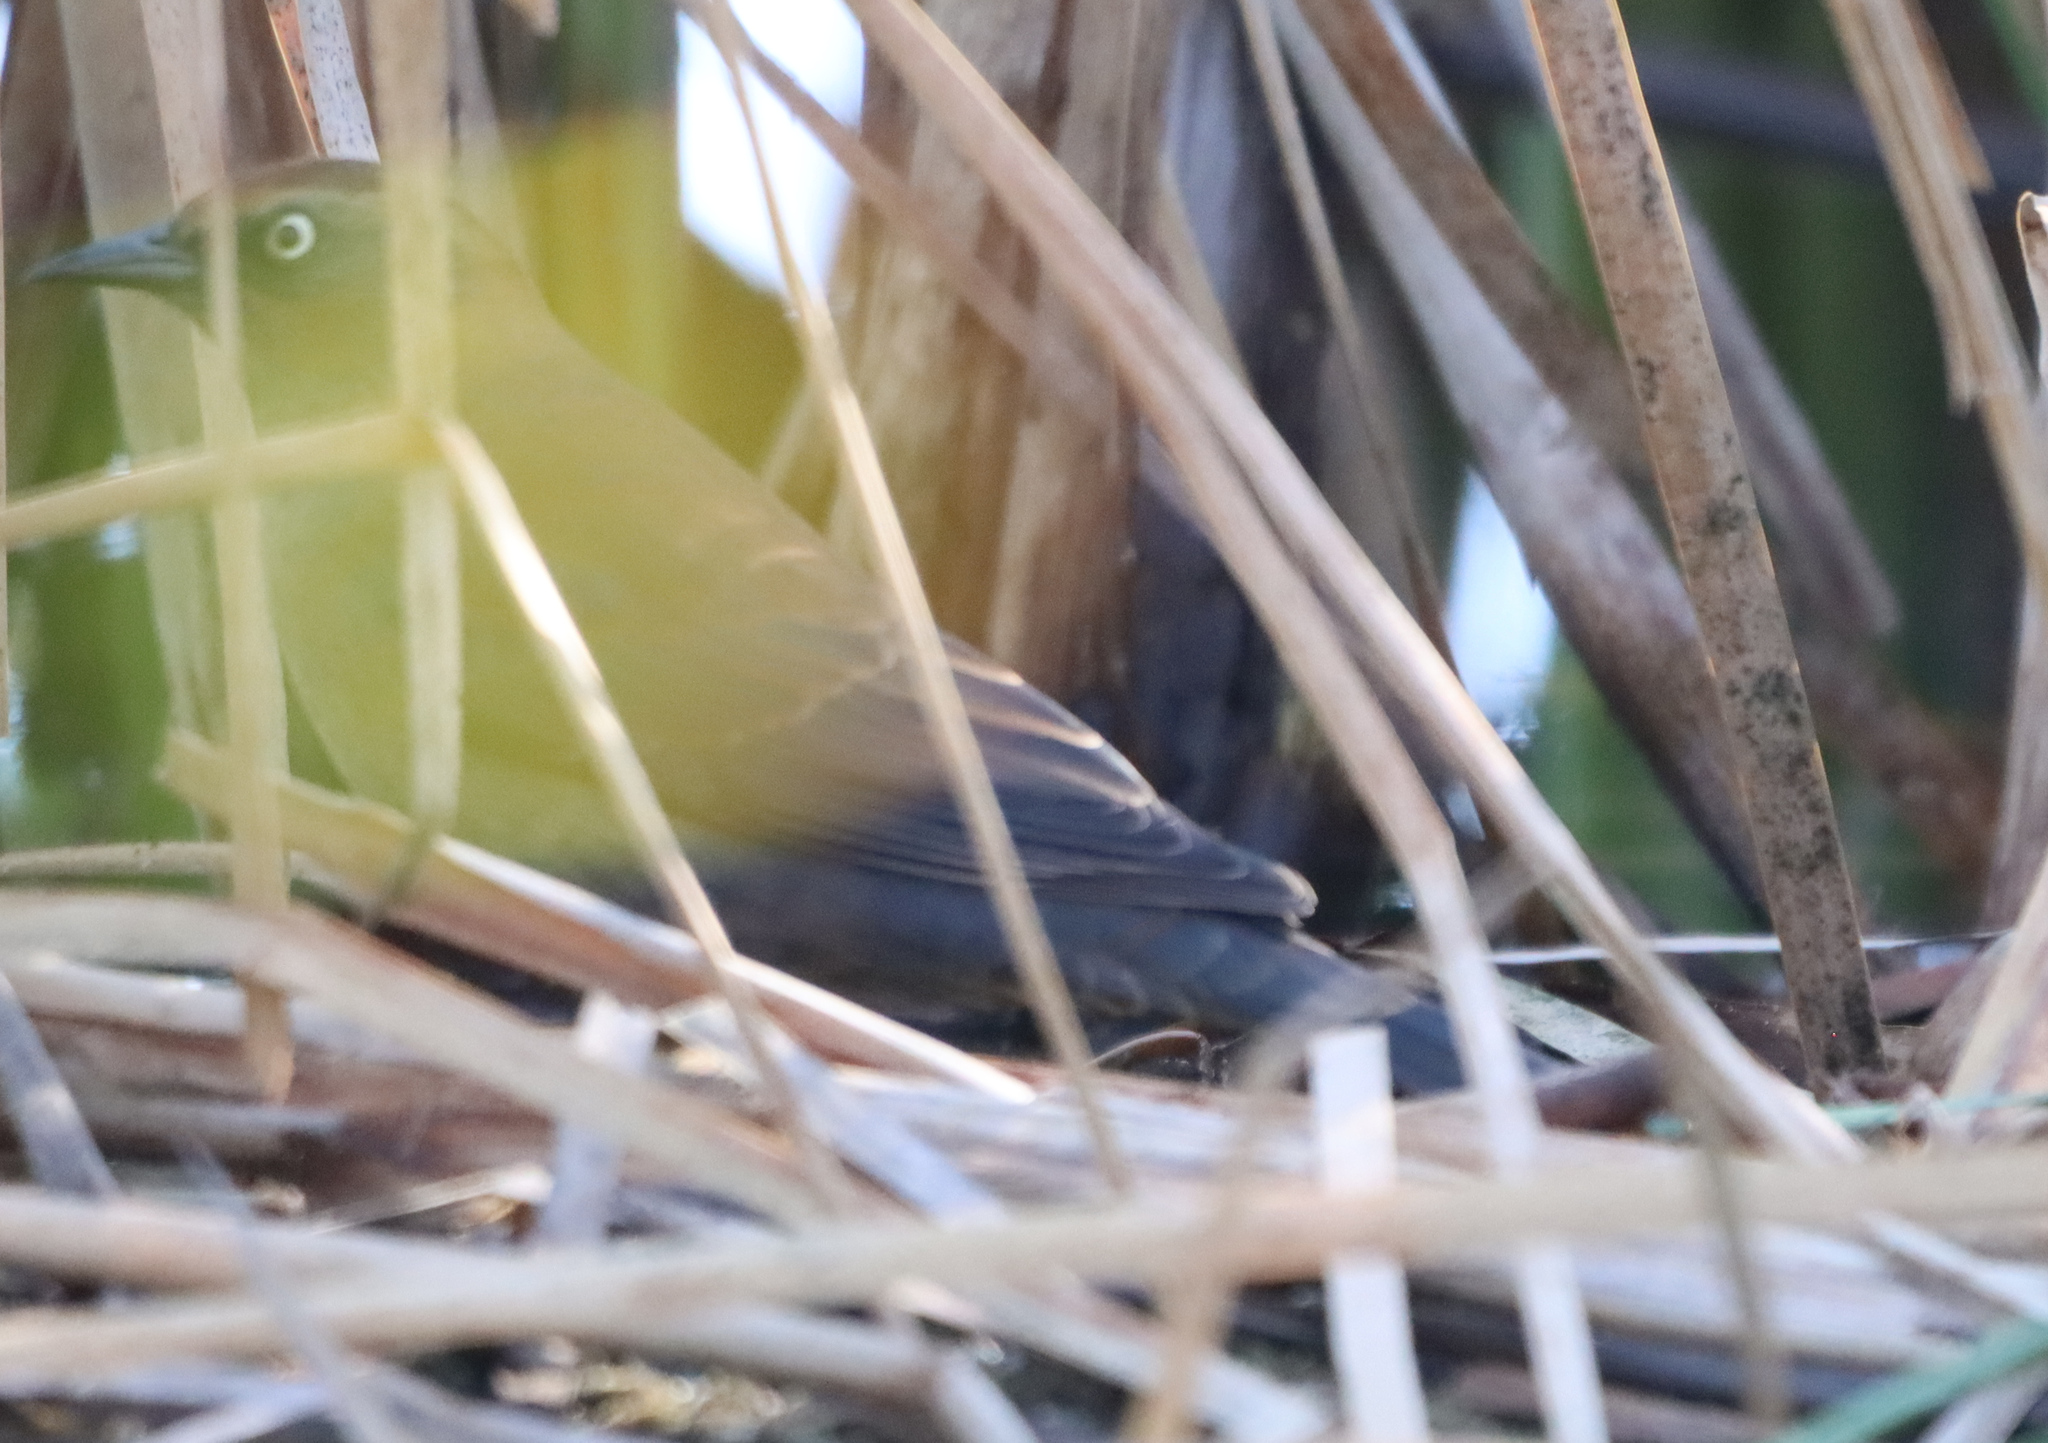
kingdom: Animalia
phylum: Chordata
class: Aves
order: Passeriformes
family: Icteridae
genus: Euphagus
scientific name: Euphagus carolinus
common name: Rusty blackbird
